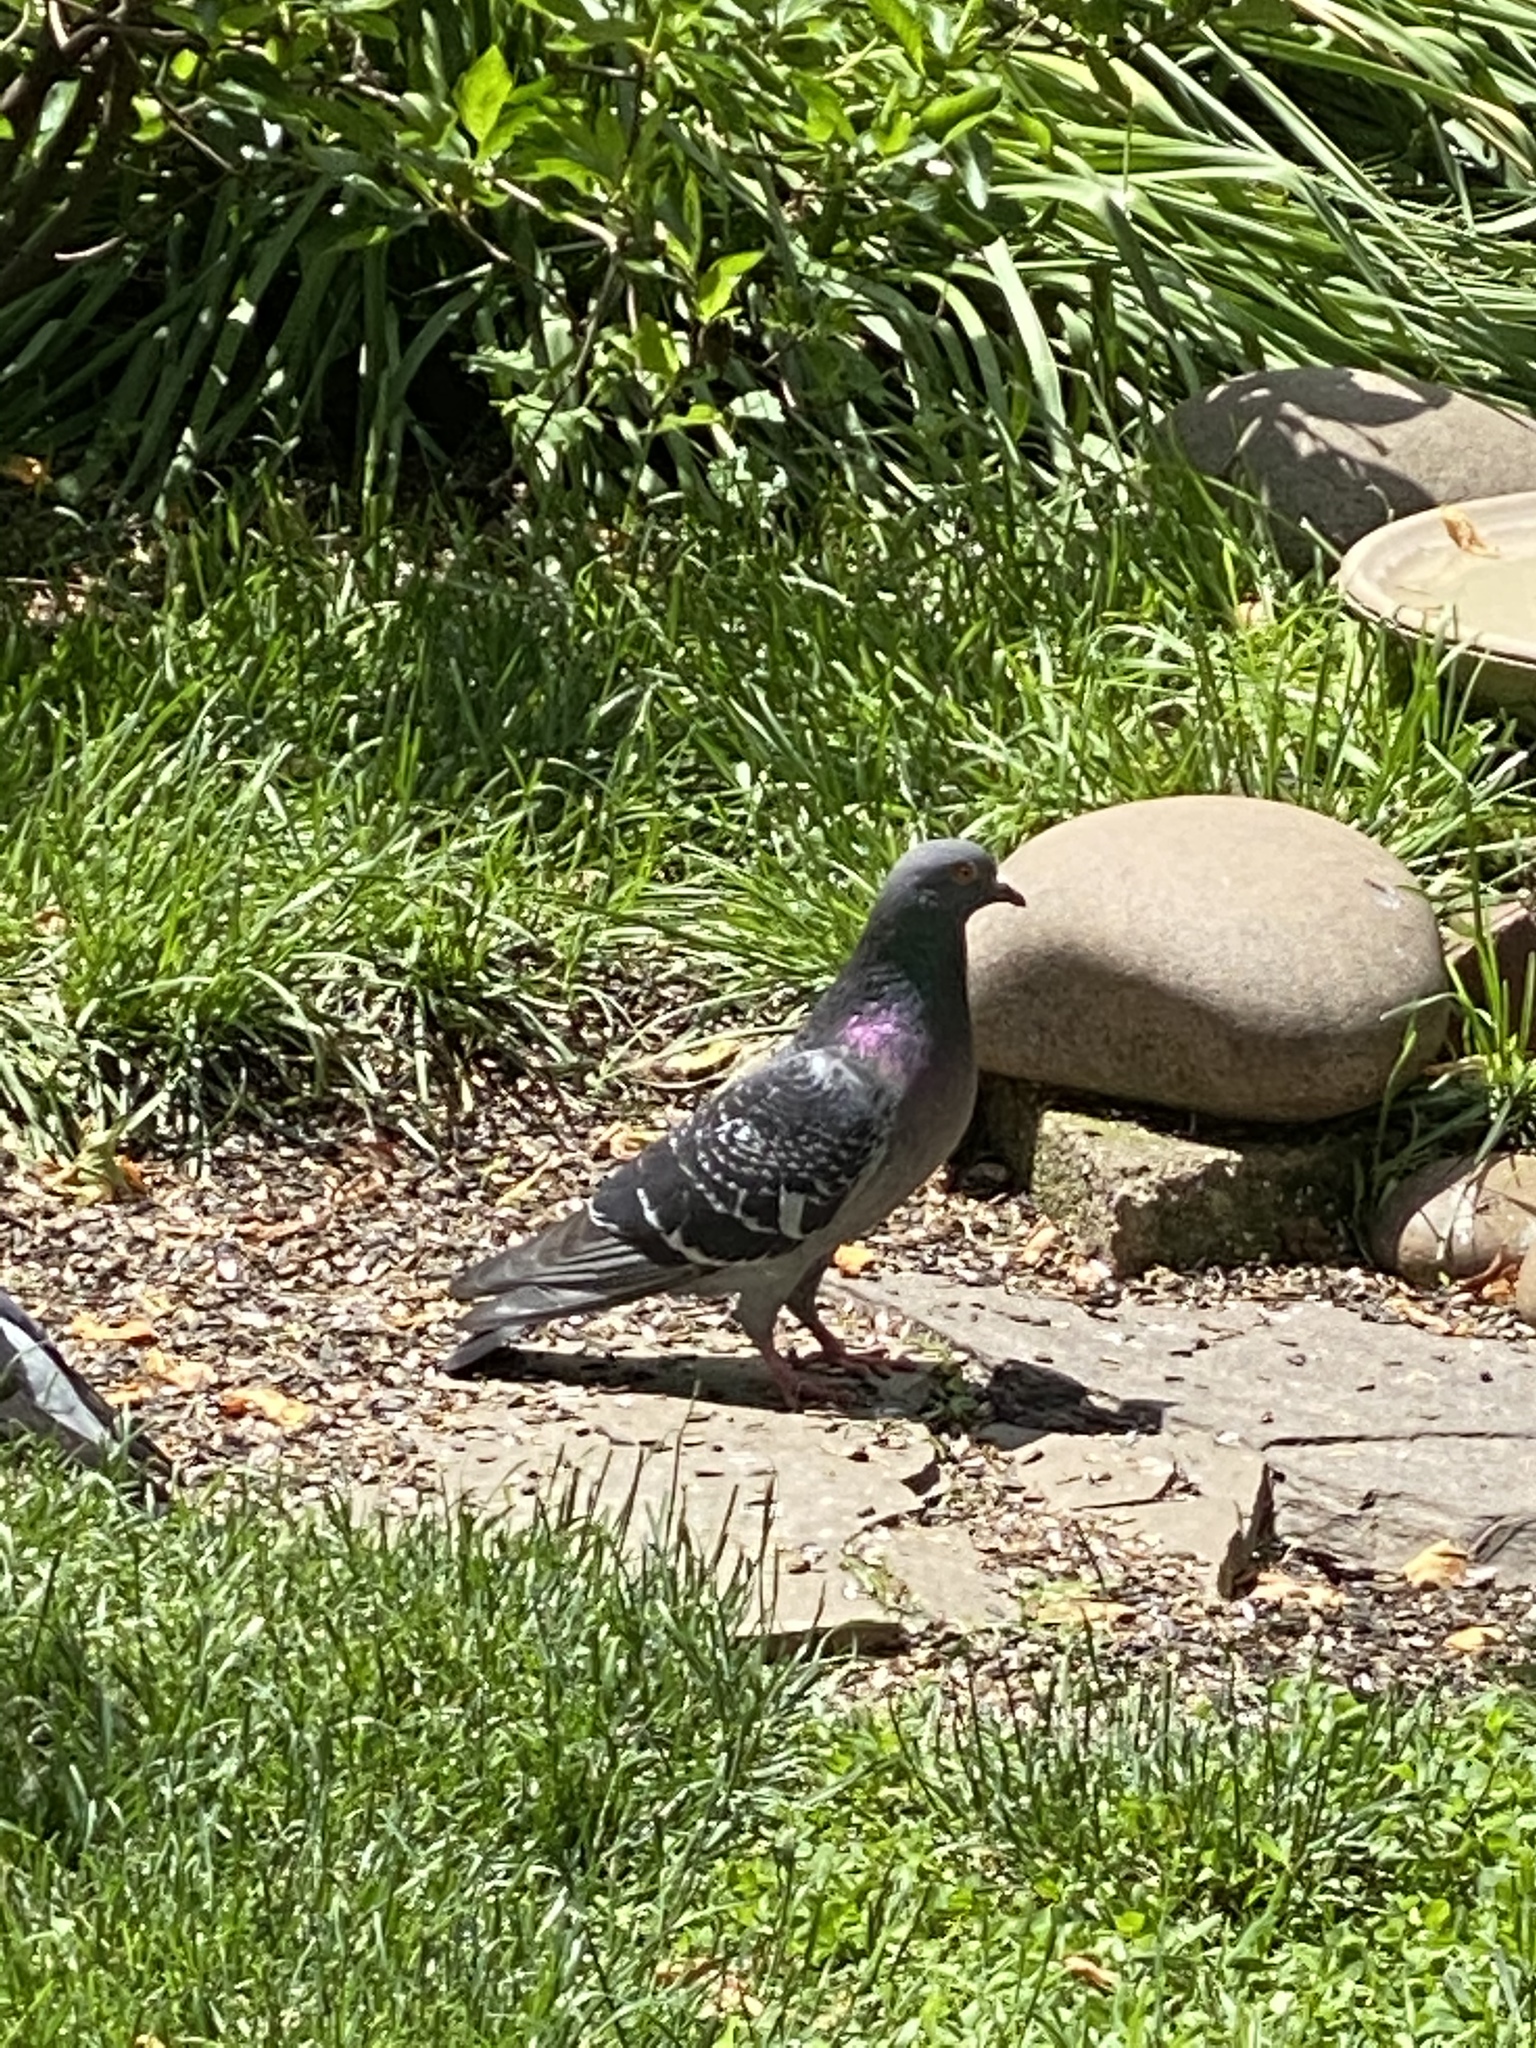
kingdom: Animalia
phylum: Chordata
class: Aves
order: Columbiformes
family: Columbidae
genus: Columba
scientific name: Columba livia
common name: Rock pigeon
